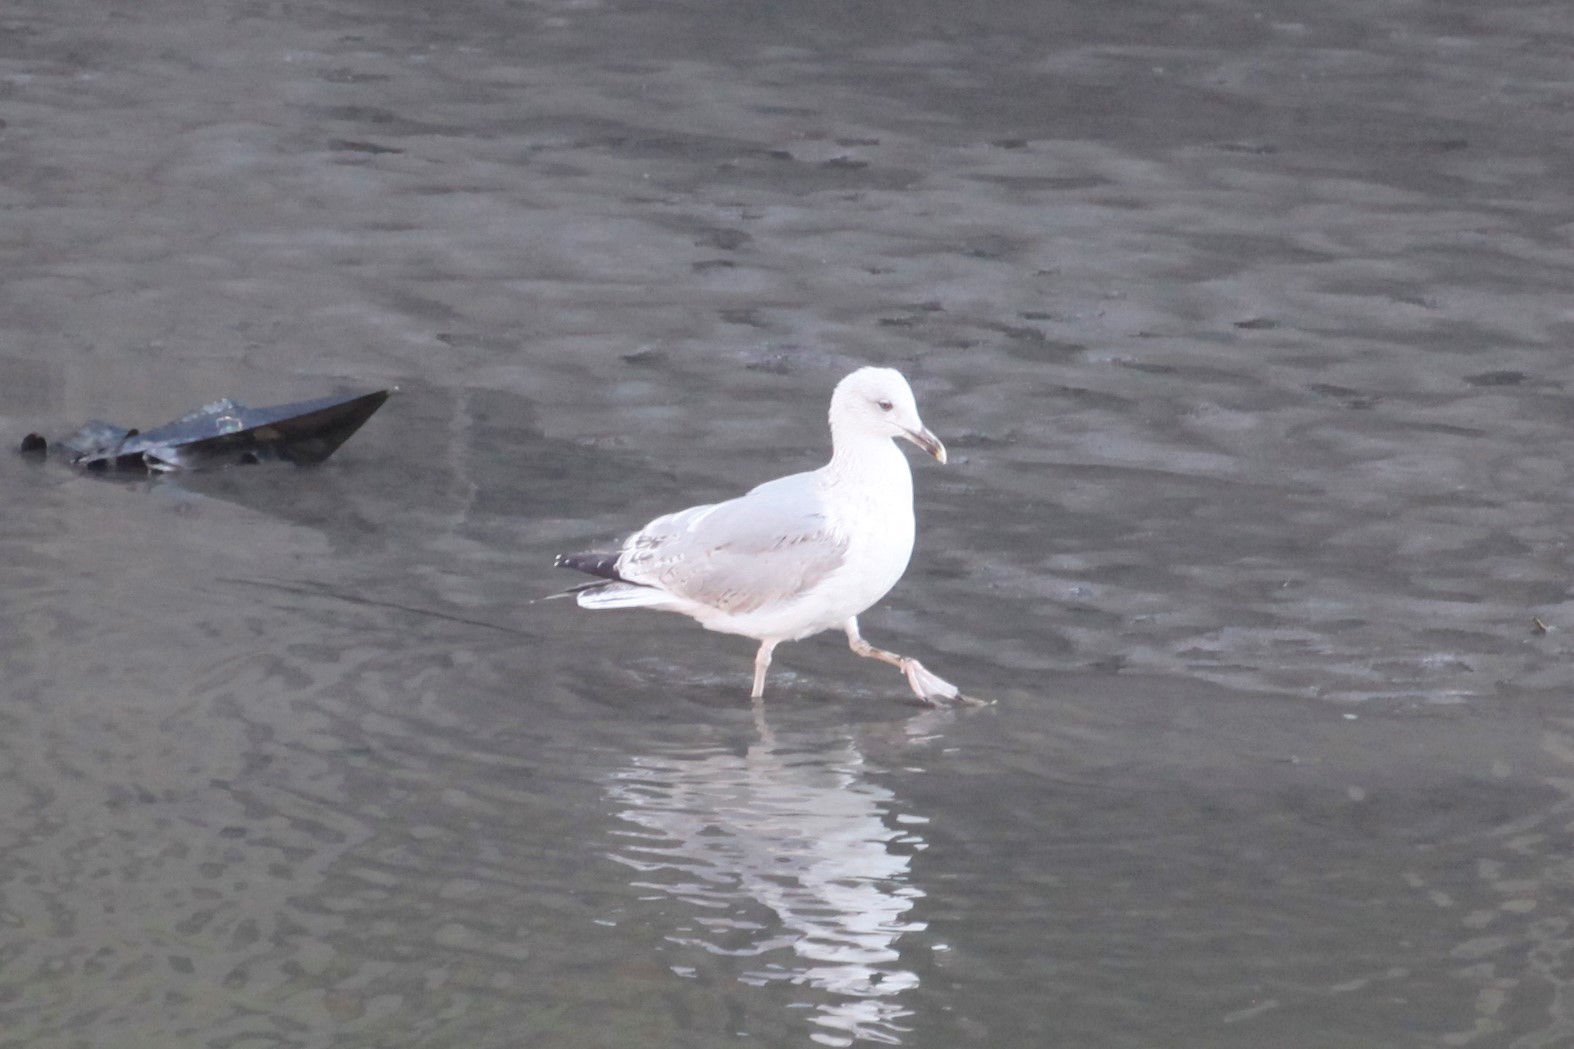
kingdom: Animalia
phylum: Chordata
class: Aves
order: Charadriiformes
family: Laridae
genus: Larus
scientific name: Larus argentatus
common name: Herring gull
